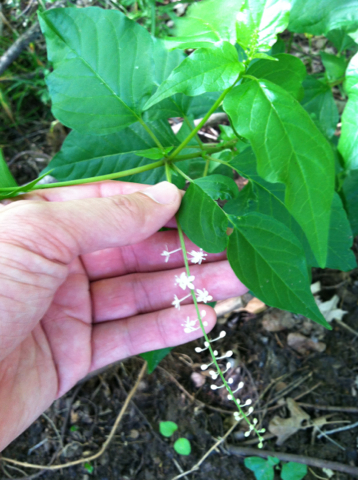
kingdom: Plantae
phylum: Tracheophyta
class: Magnoliopsida
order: Caryophyllales
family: Phytolaccaceae
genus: Rivina
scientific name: Rivina humilis
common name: Rougeplant
